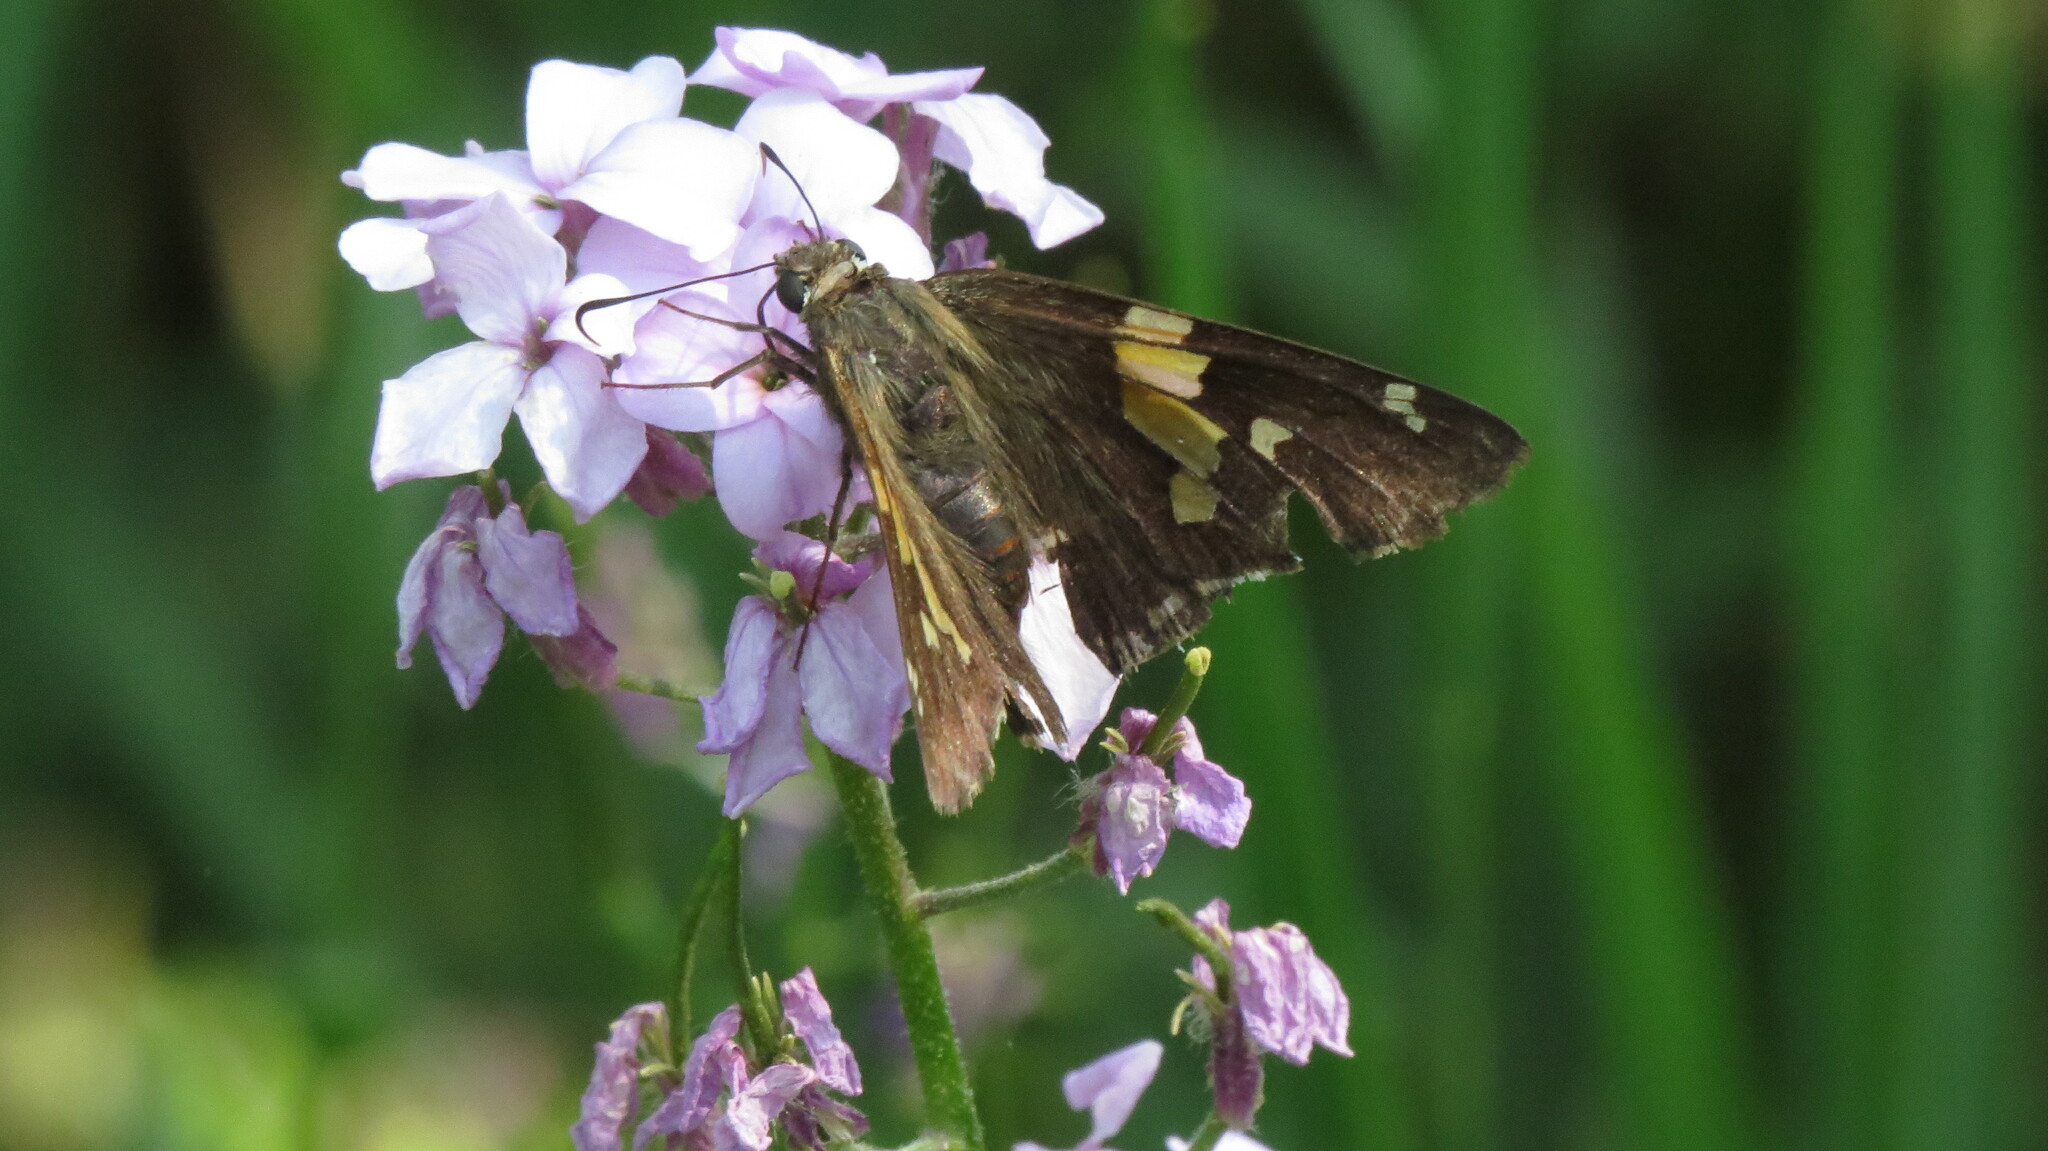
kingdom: Animalia
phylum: Arthropoda
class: Insecta
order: Lepidoptera
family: Hesperiidae
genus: Epargyreus
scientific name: Epargyreus clarus
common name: Silver-spotted skipper
